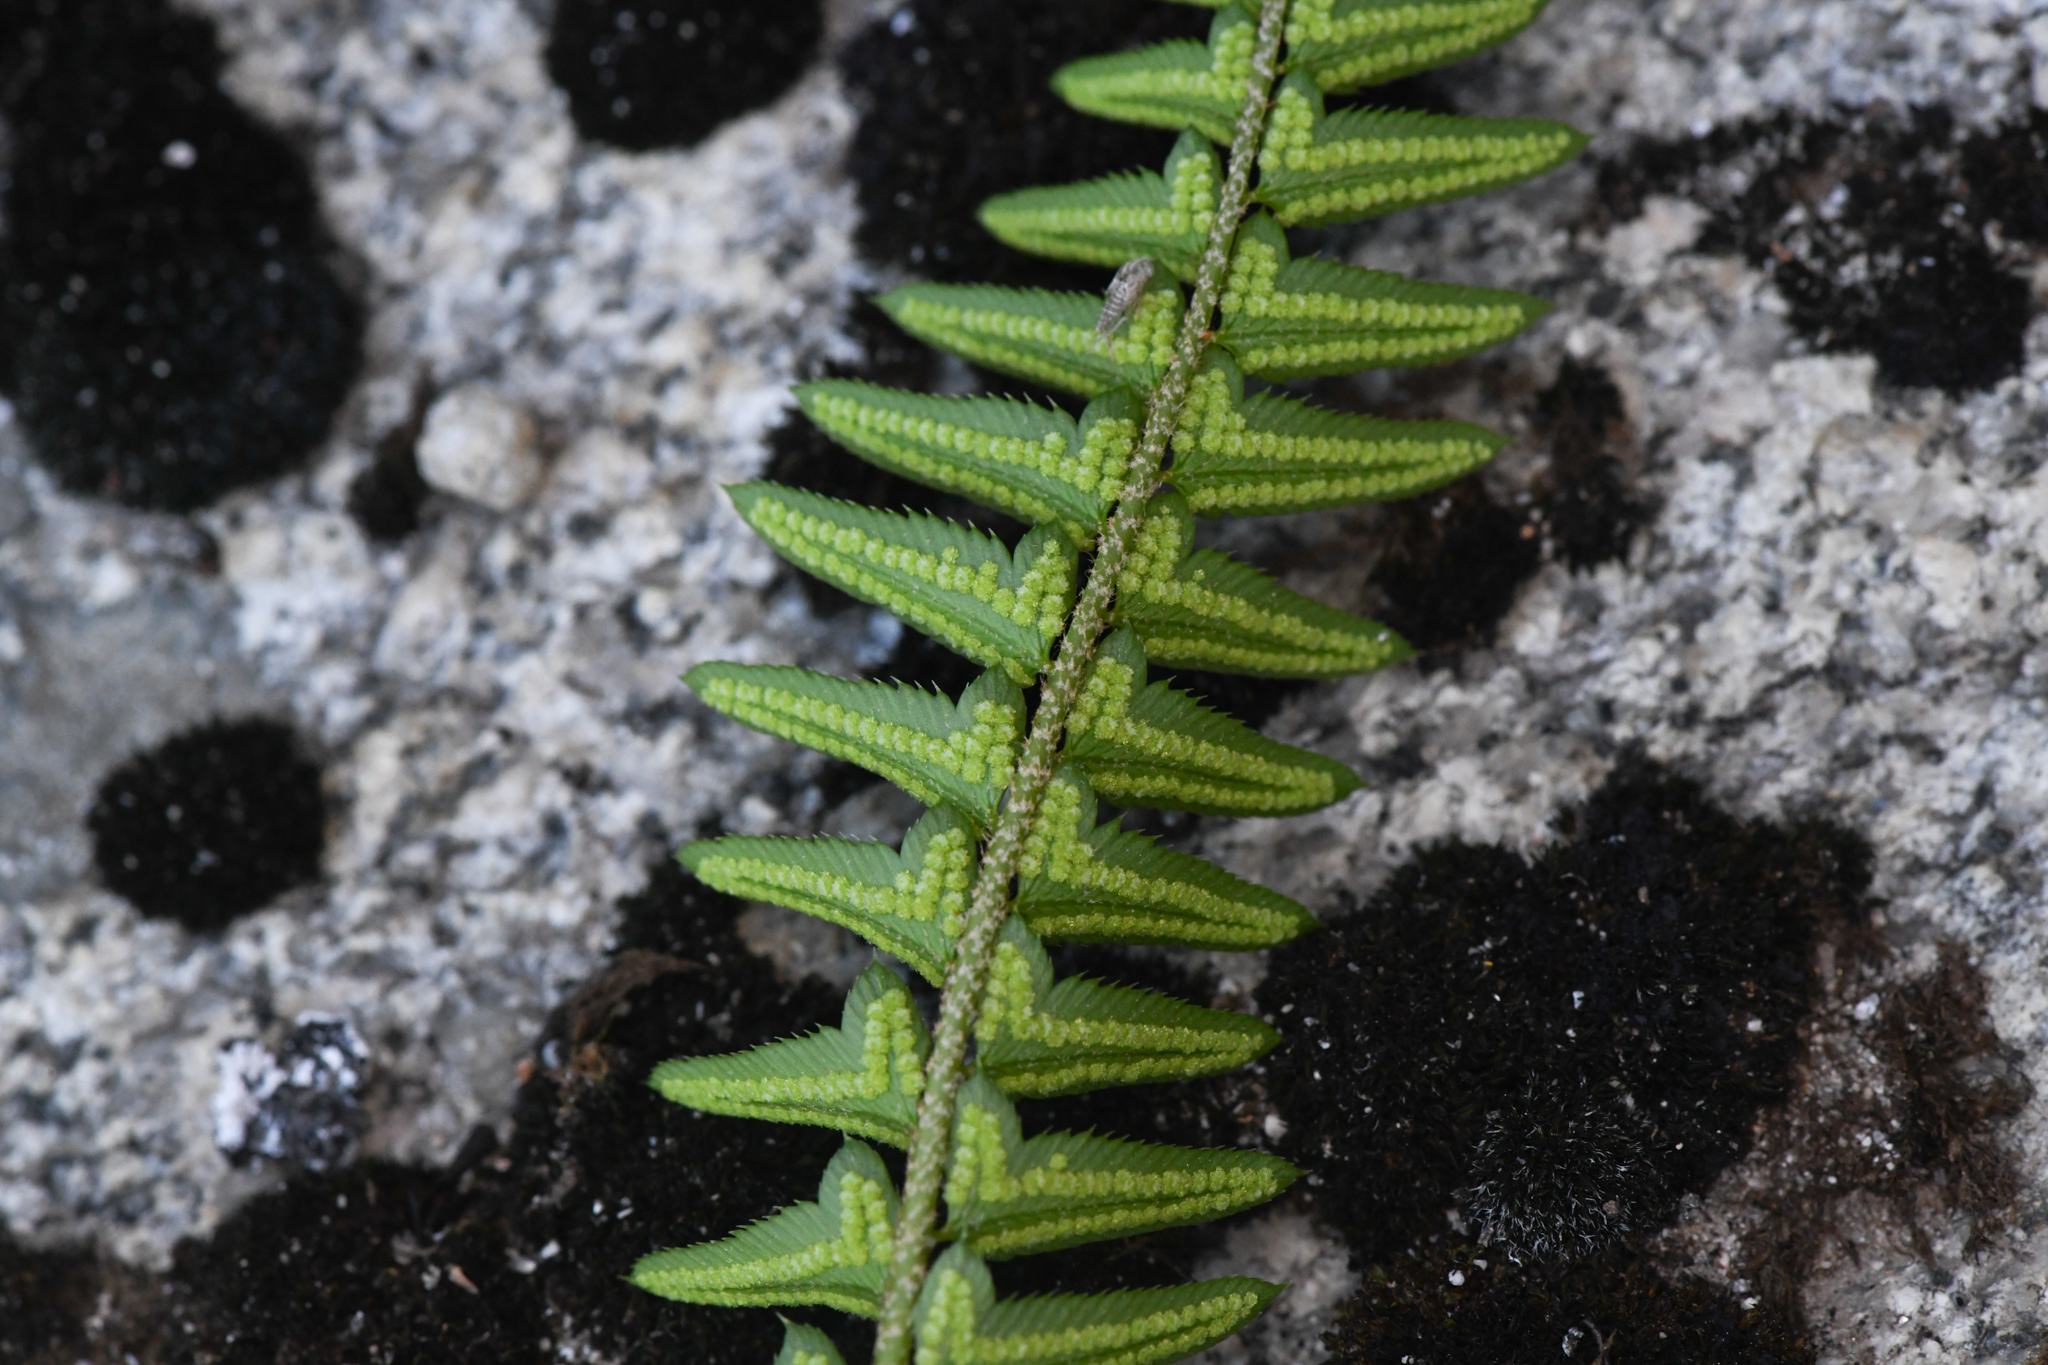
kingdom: Plantae
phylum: Tracheophyta
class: Polypodiopsida
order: Polypodiales
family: Dryopteridaceae
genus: Polystichum
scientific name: Polystichum imbricans
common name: Dwarf western sword fern
